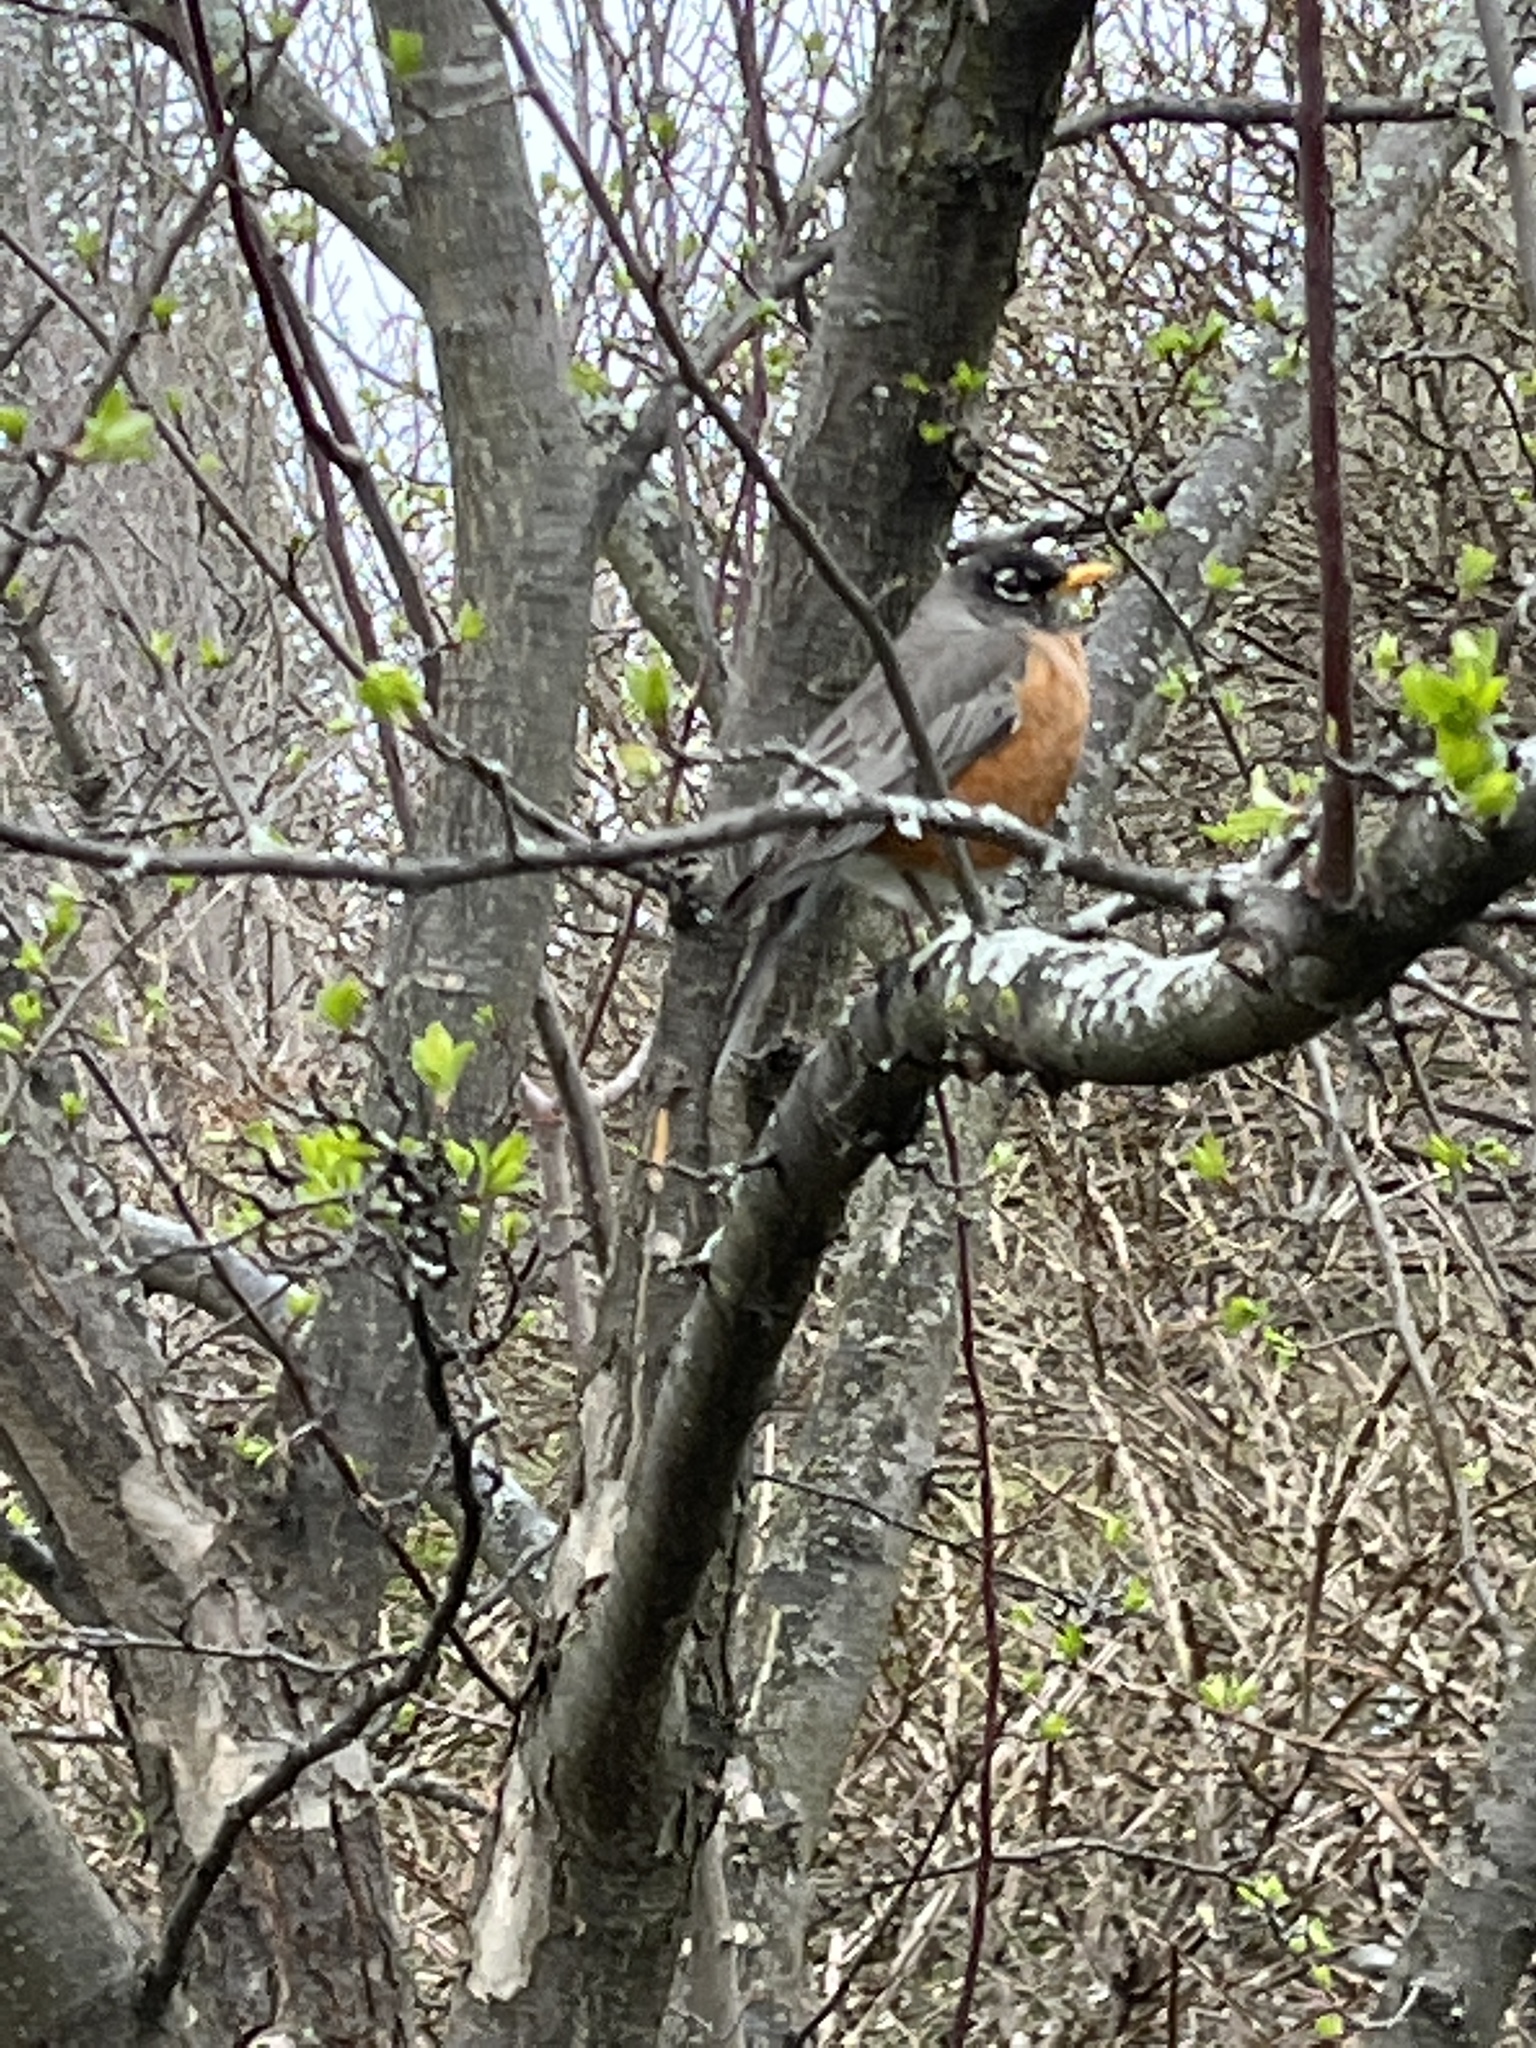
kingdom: Animalia
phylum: Chordata
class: Aves
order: Passeriformes
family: Turdidae
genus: Turdus
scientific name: Turdus migratorius
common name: American robin
